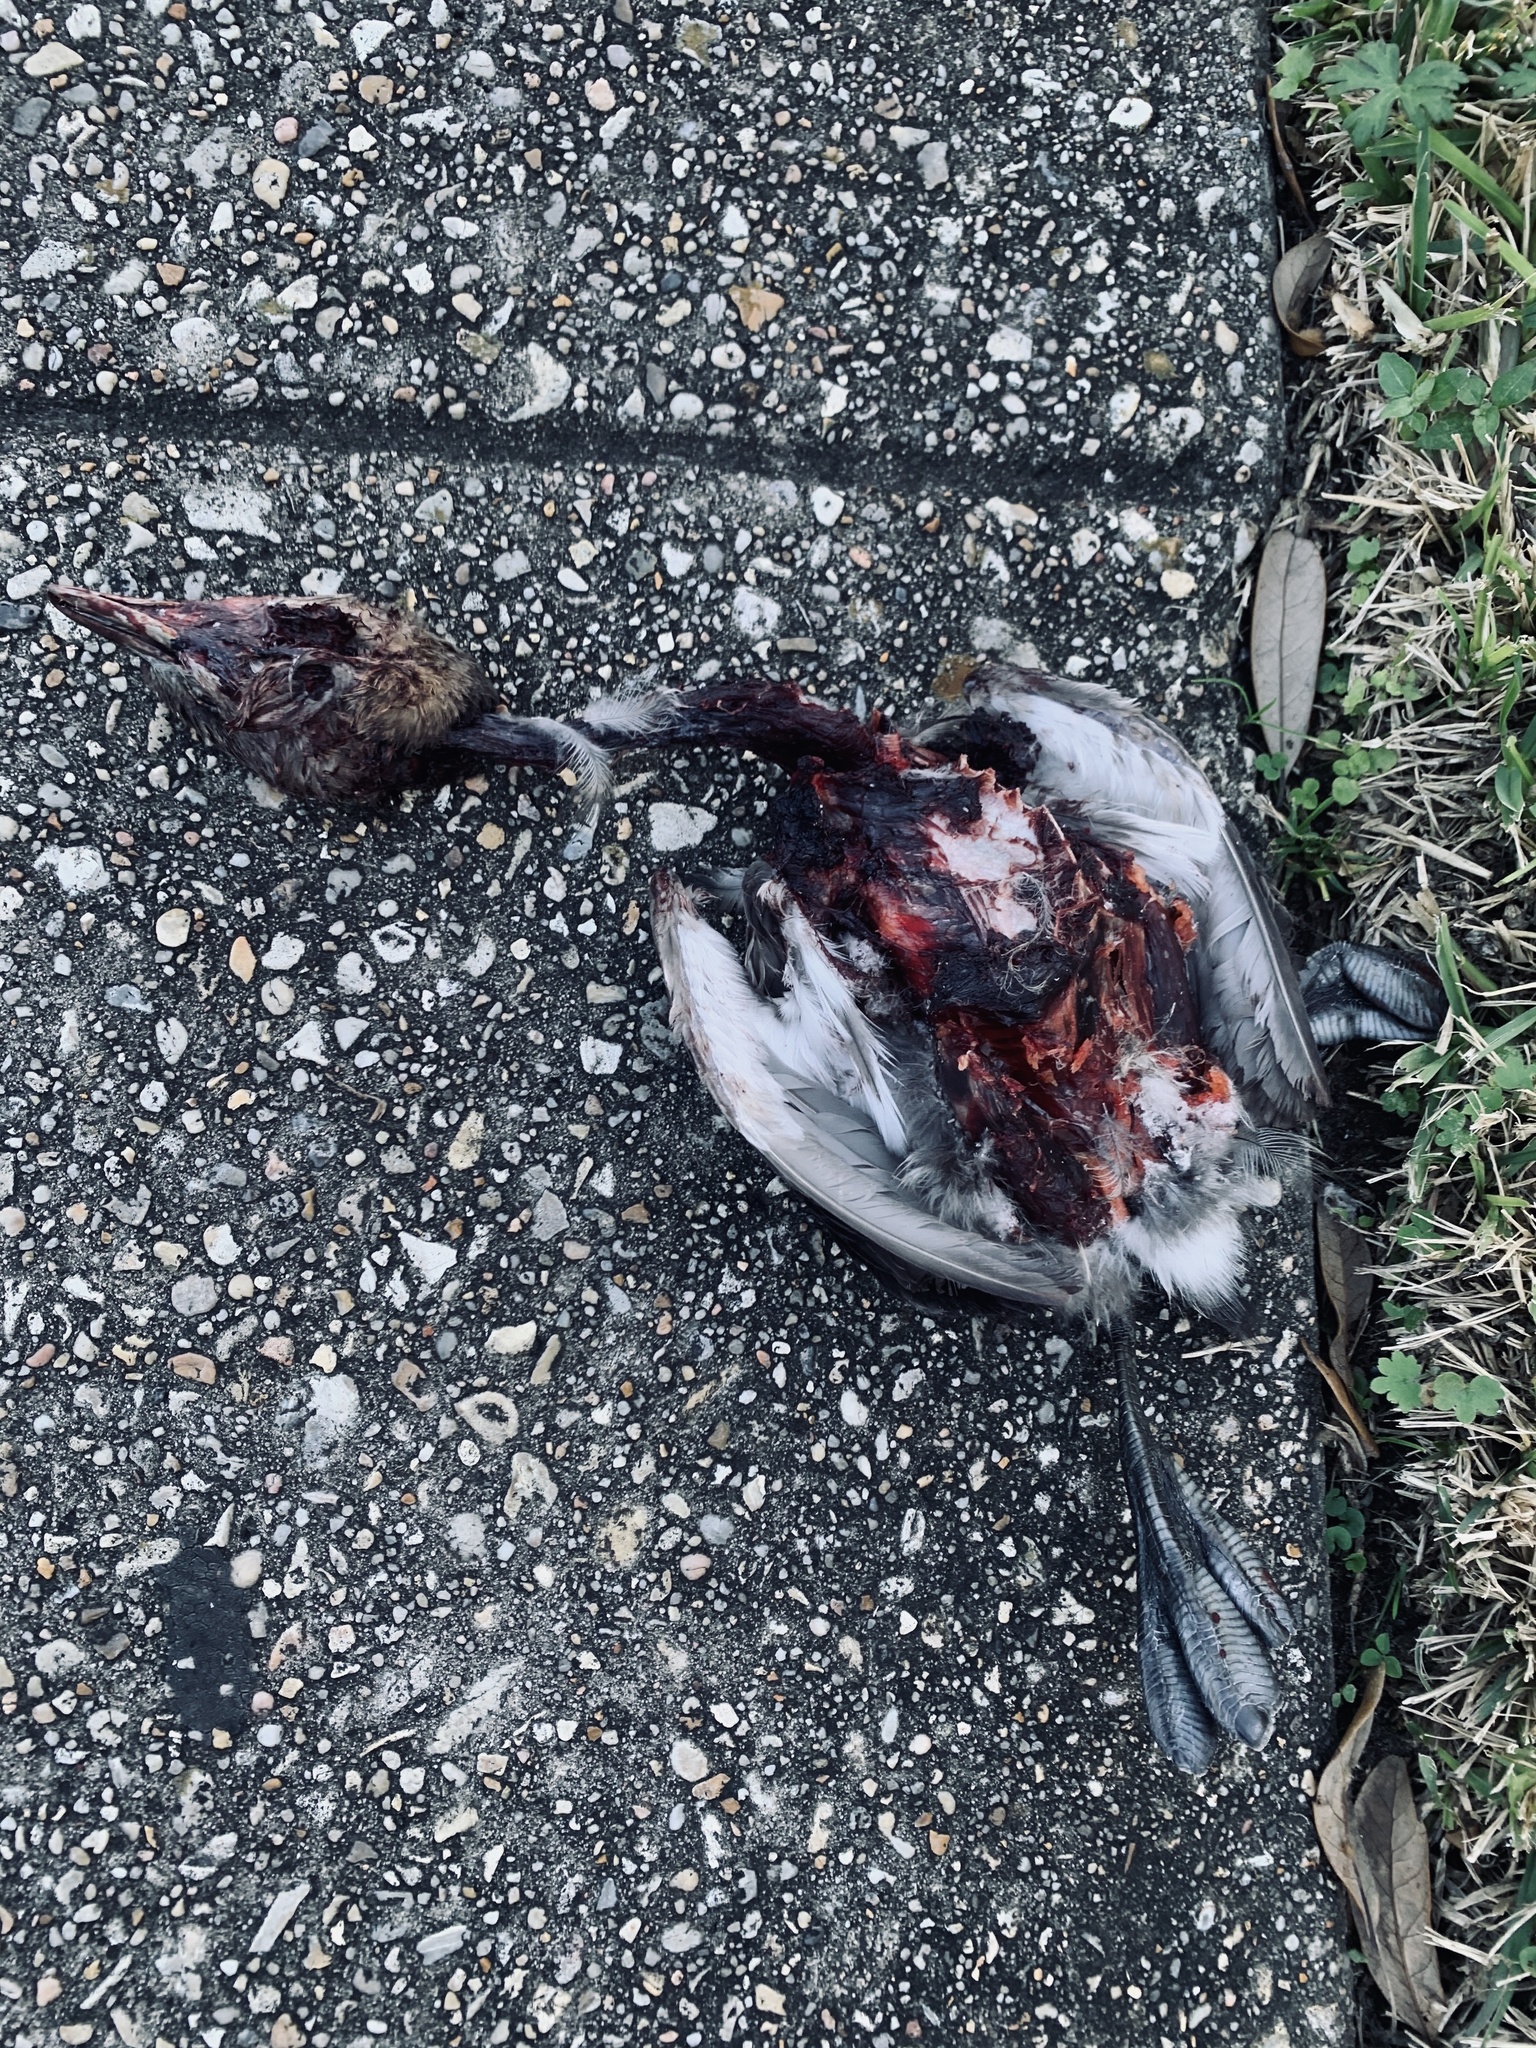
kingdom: Animalia
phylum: Chordata
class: Aves
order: Podicipediformes
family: Podicipedidae
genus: Podilymbus
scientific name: Podilymbus podiceps
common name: Pied-billed grebe
